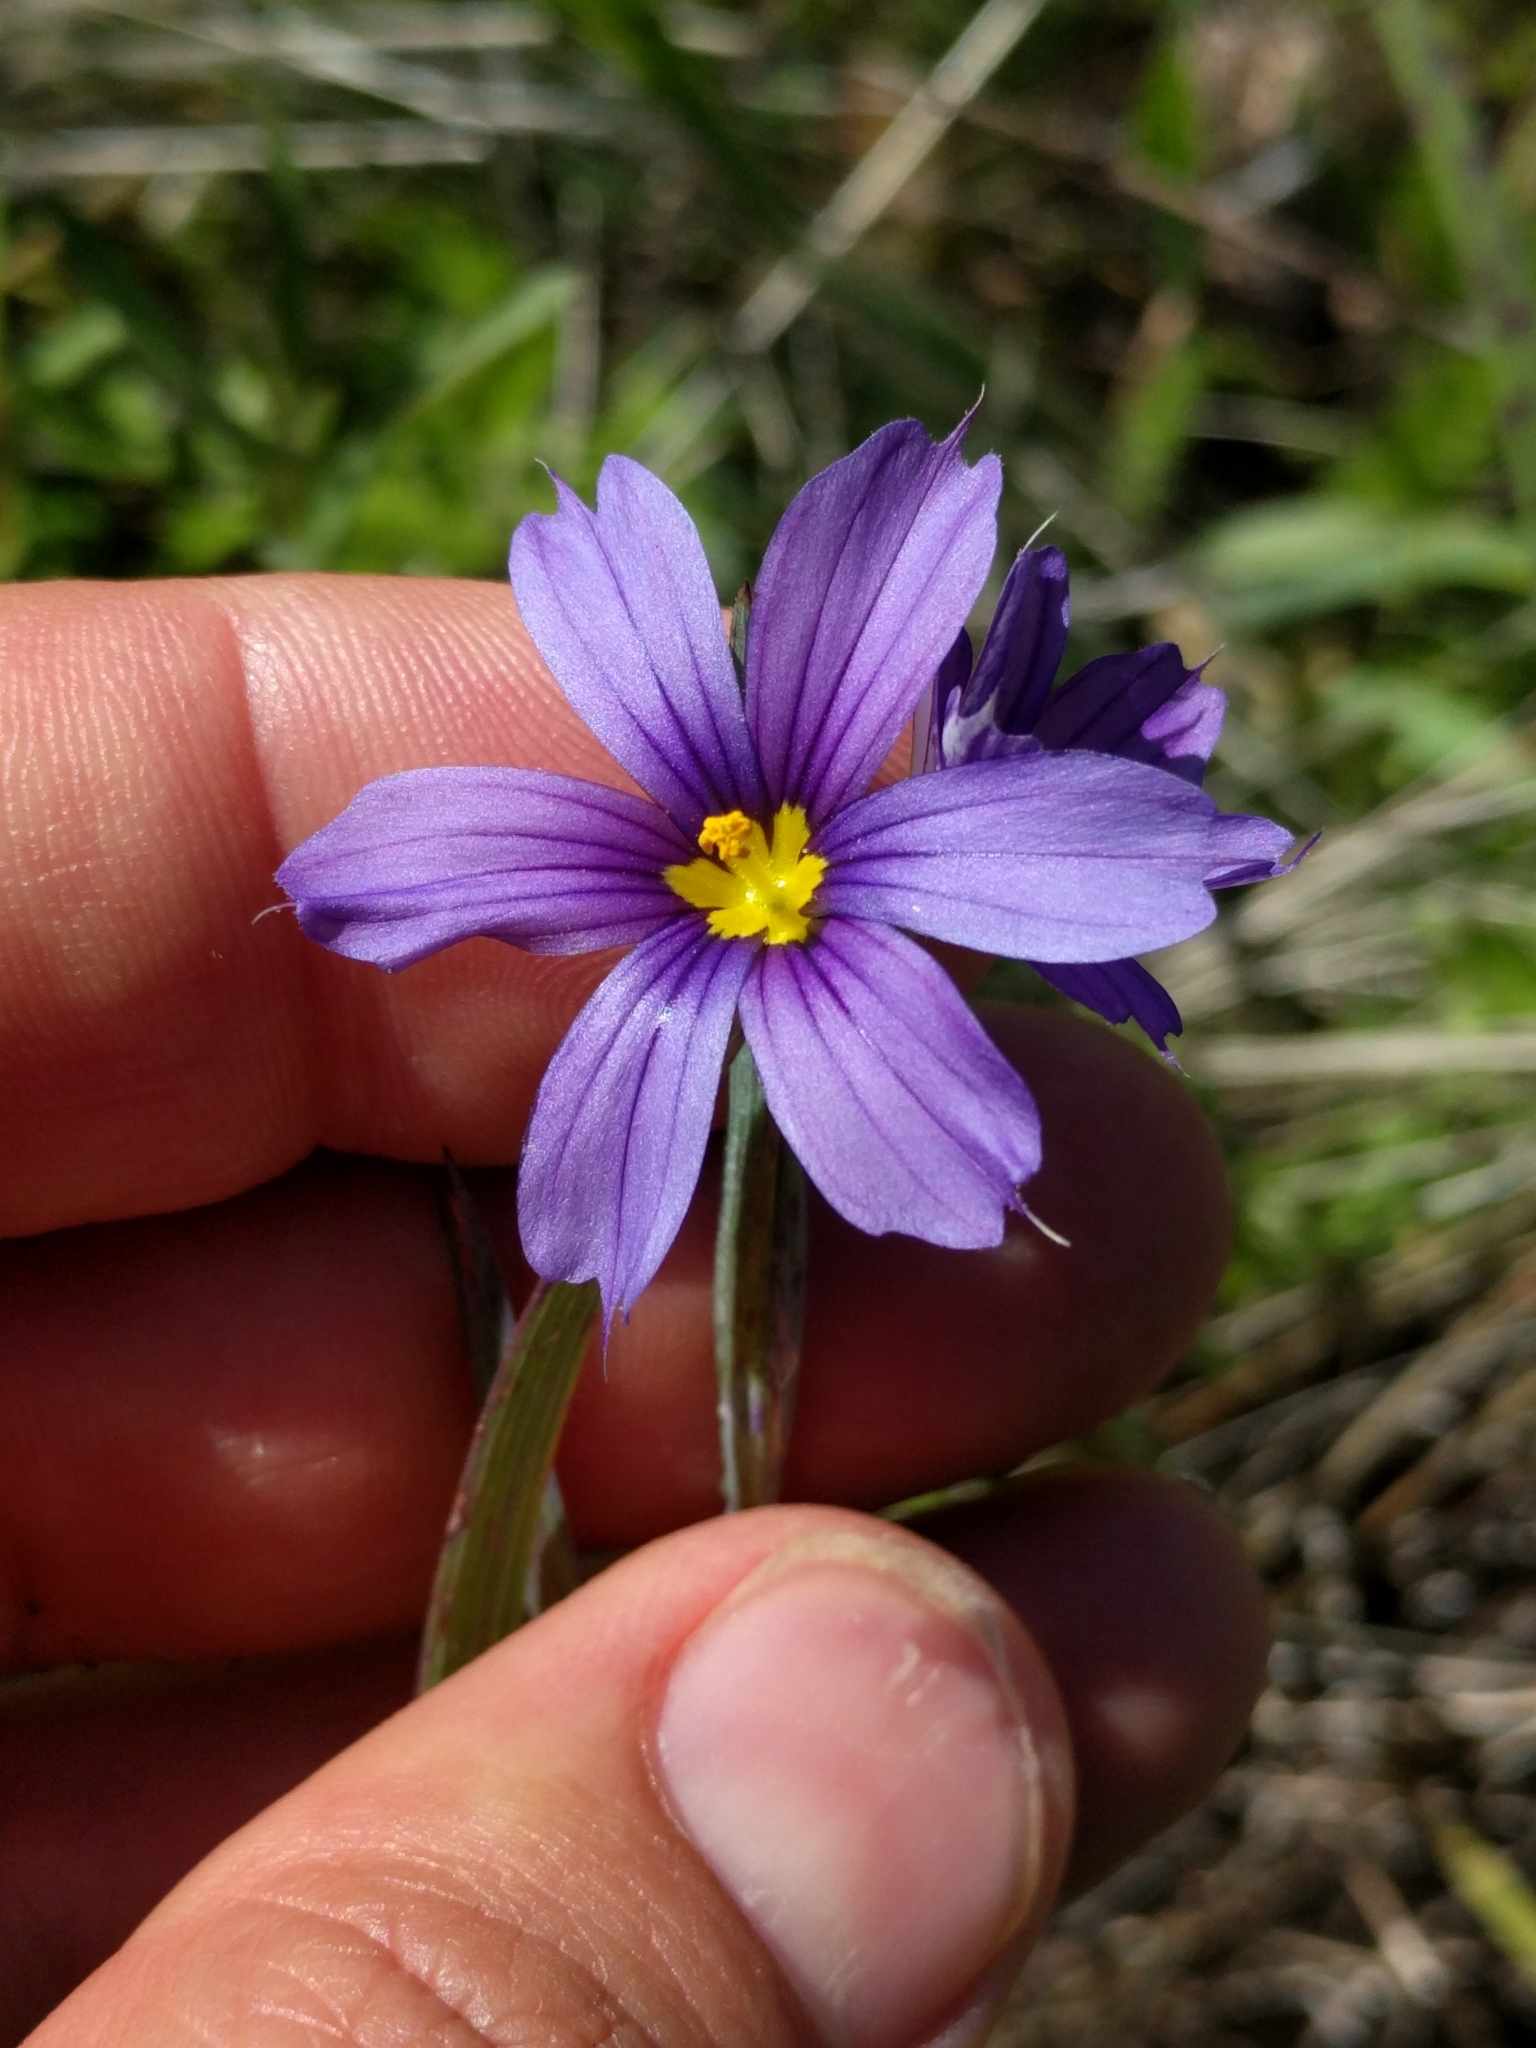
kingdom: Plantae
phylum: Tracheophyta
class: Liliopsida
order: Asparagales
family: Iridaceae
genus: Sisyrinchium
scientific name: Sisyrinchium bellum
